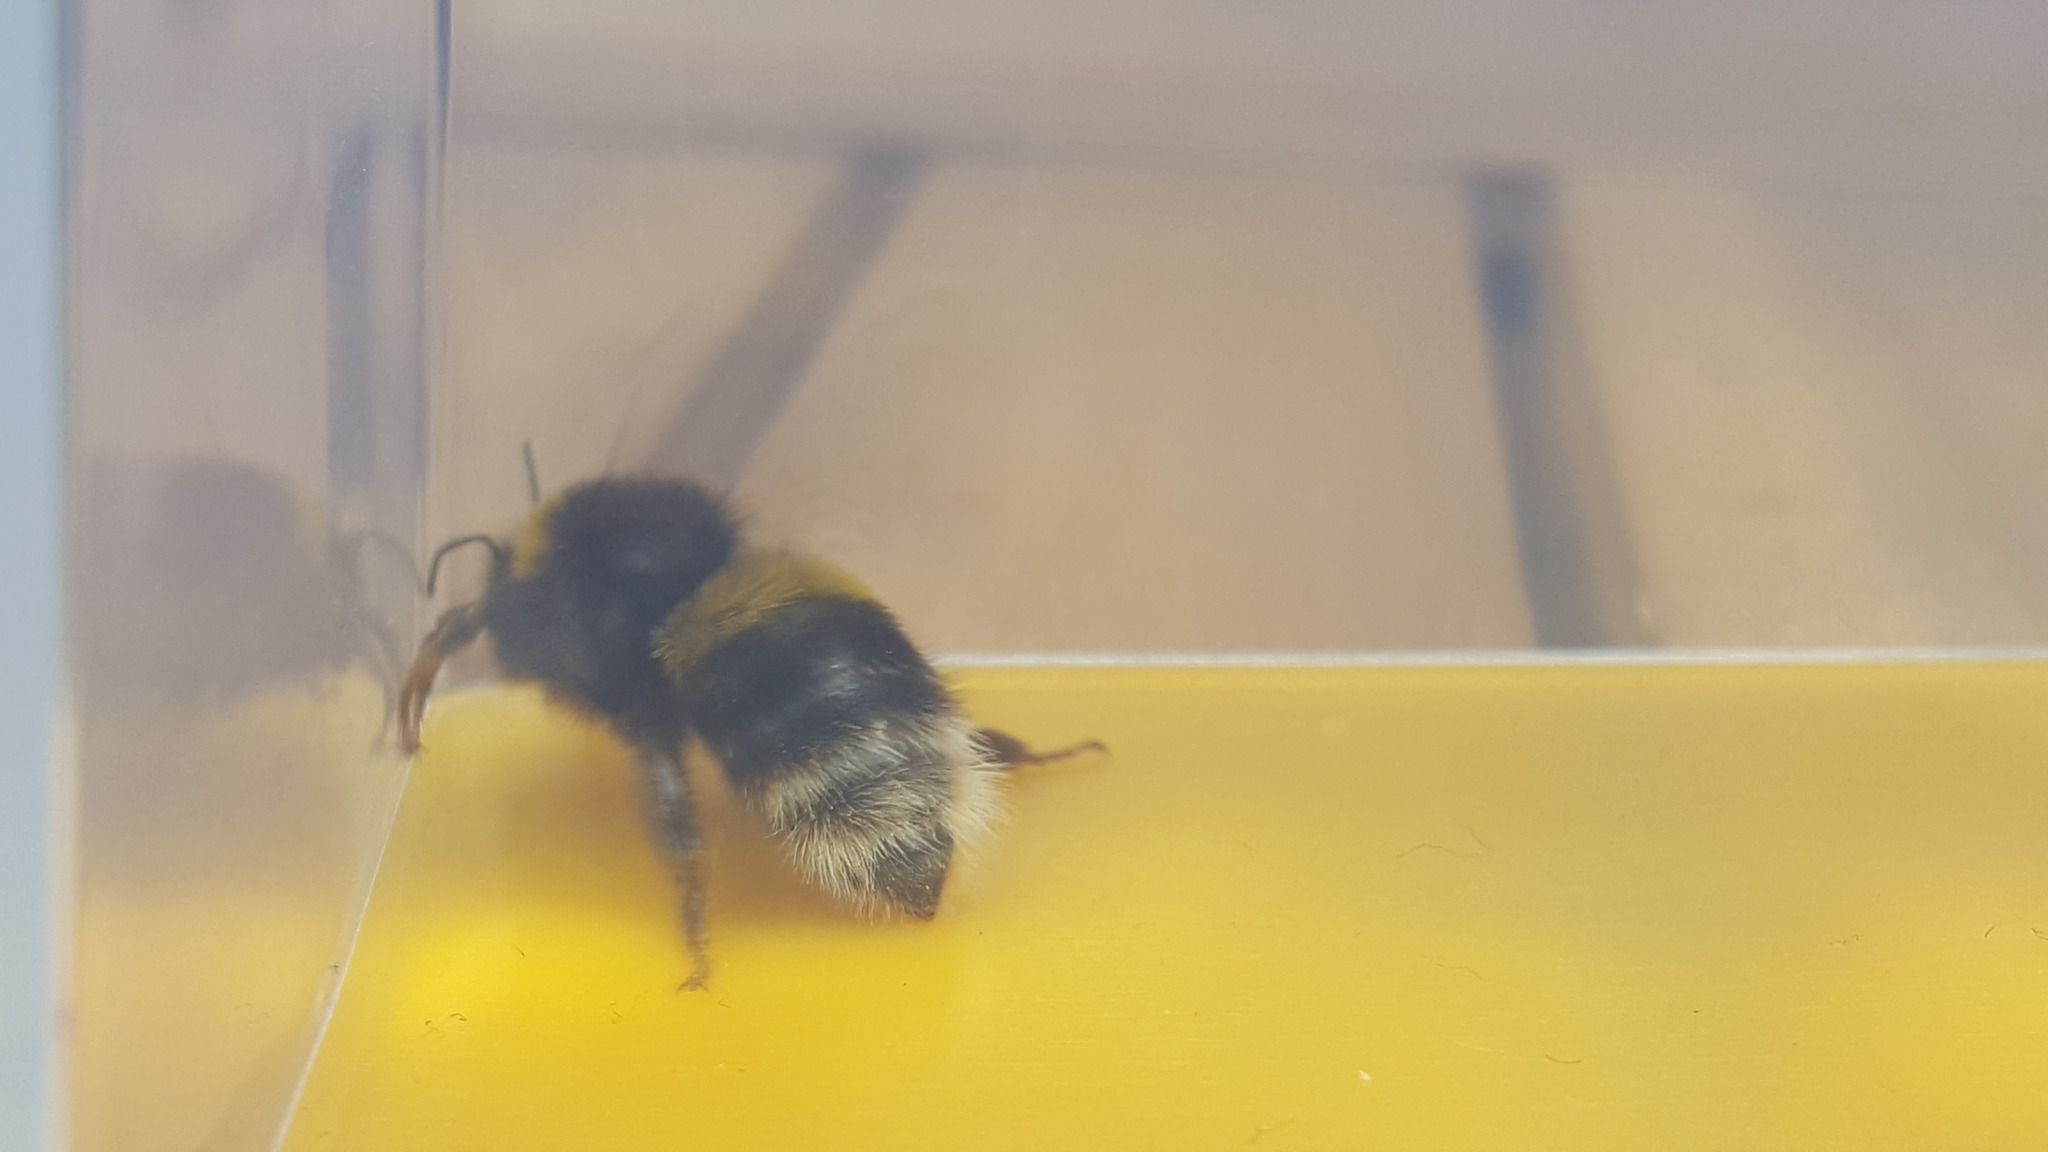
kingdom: Animalia
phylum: Arthropoda
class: Insecta
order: Hymenoptera
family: Apidae
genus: Bombus
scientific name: Bombus terrestris
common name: Buff-tailed bumblebee
